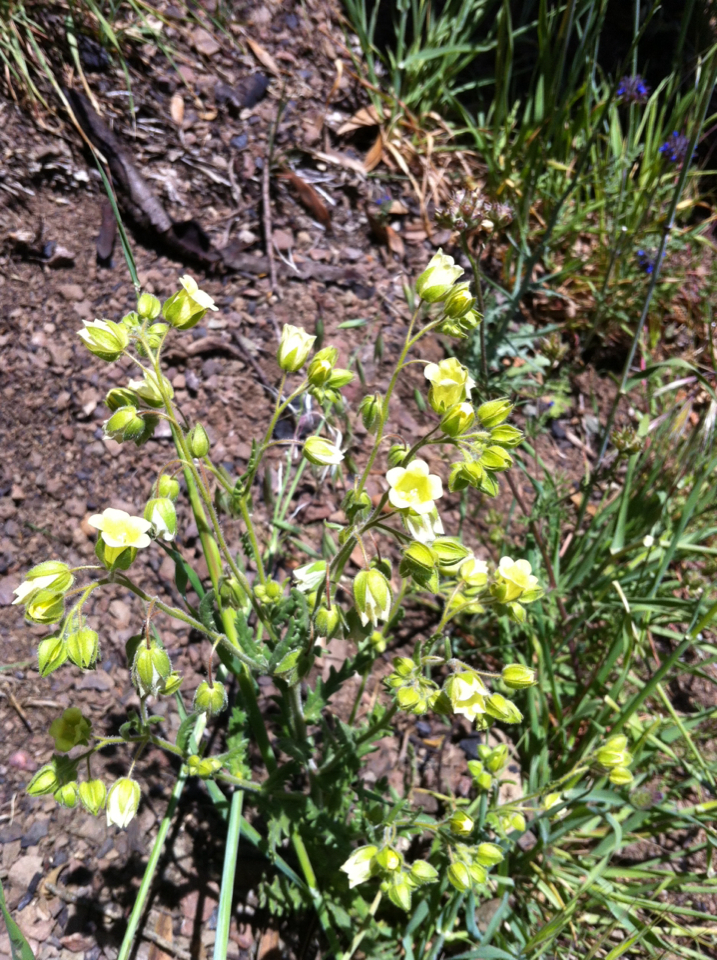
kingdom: Plantae
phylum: Tracheophyta
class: Magnoliopsida
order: Boraginales
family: Hydrophyllaceae
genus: Emmenanthe
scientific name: Emmenanthe penduliflora
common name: Whispering-bells
